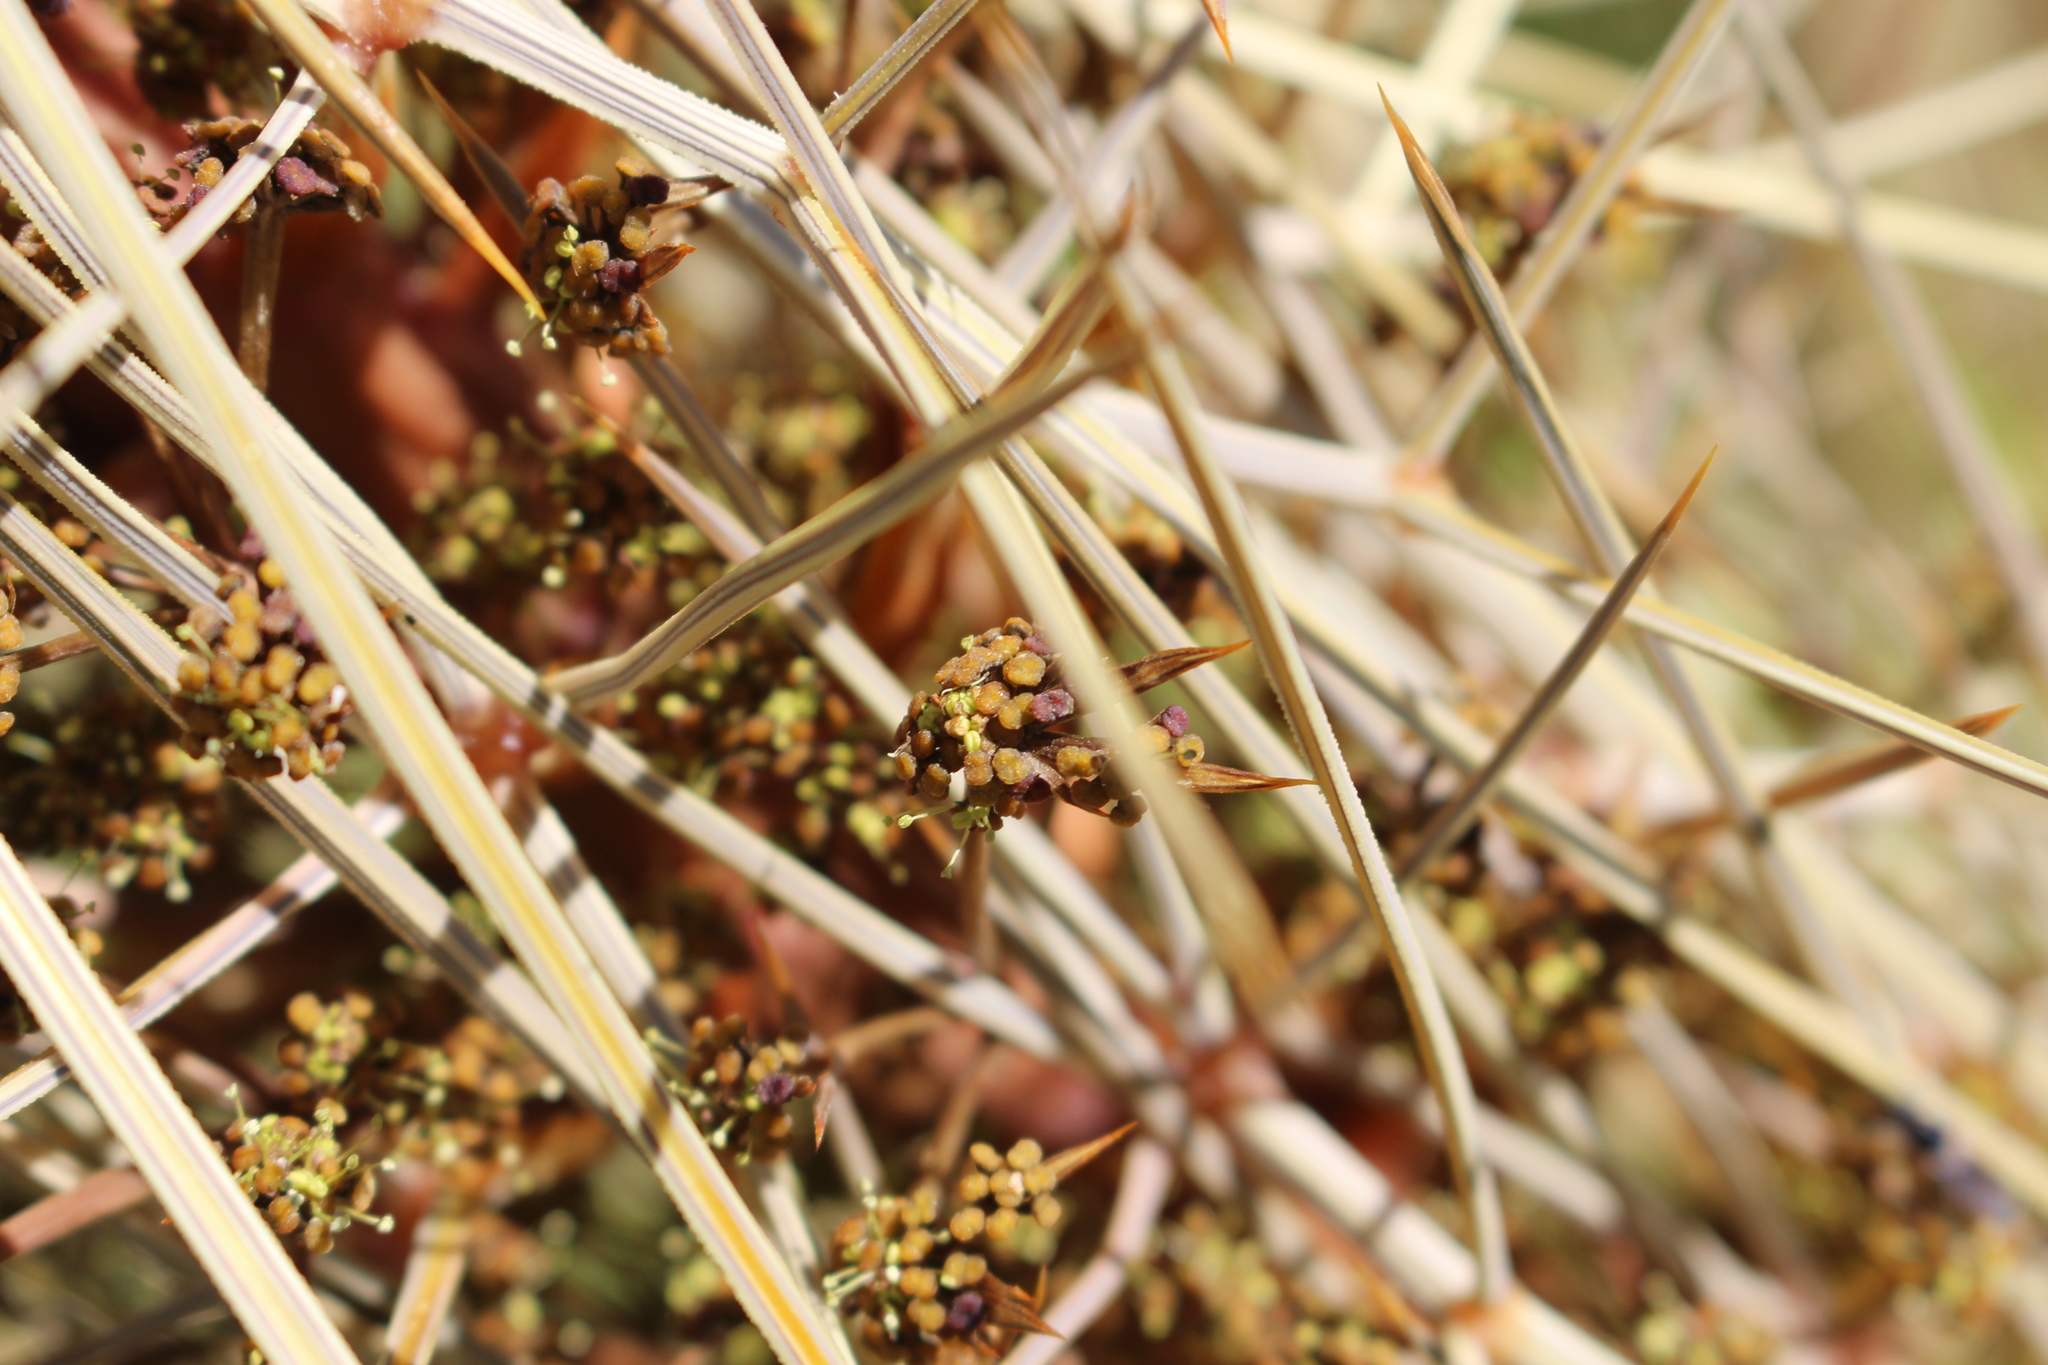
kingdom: Plantae
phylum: Tracheophyta
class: Magnoliopsida
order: Apiales
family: Apiaceae
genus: Aciphylla
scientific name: Aciphylla subflabellata
